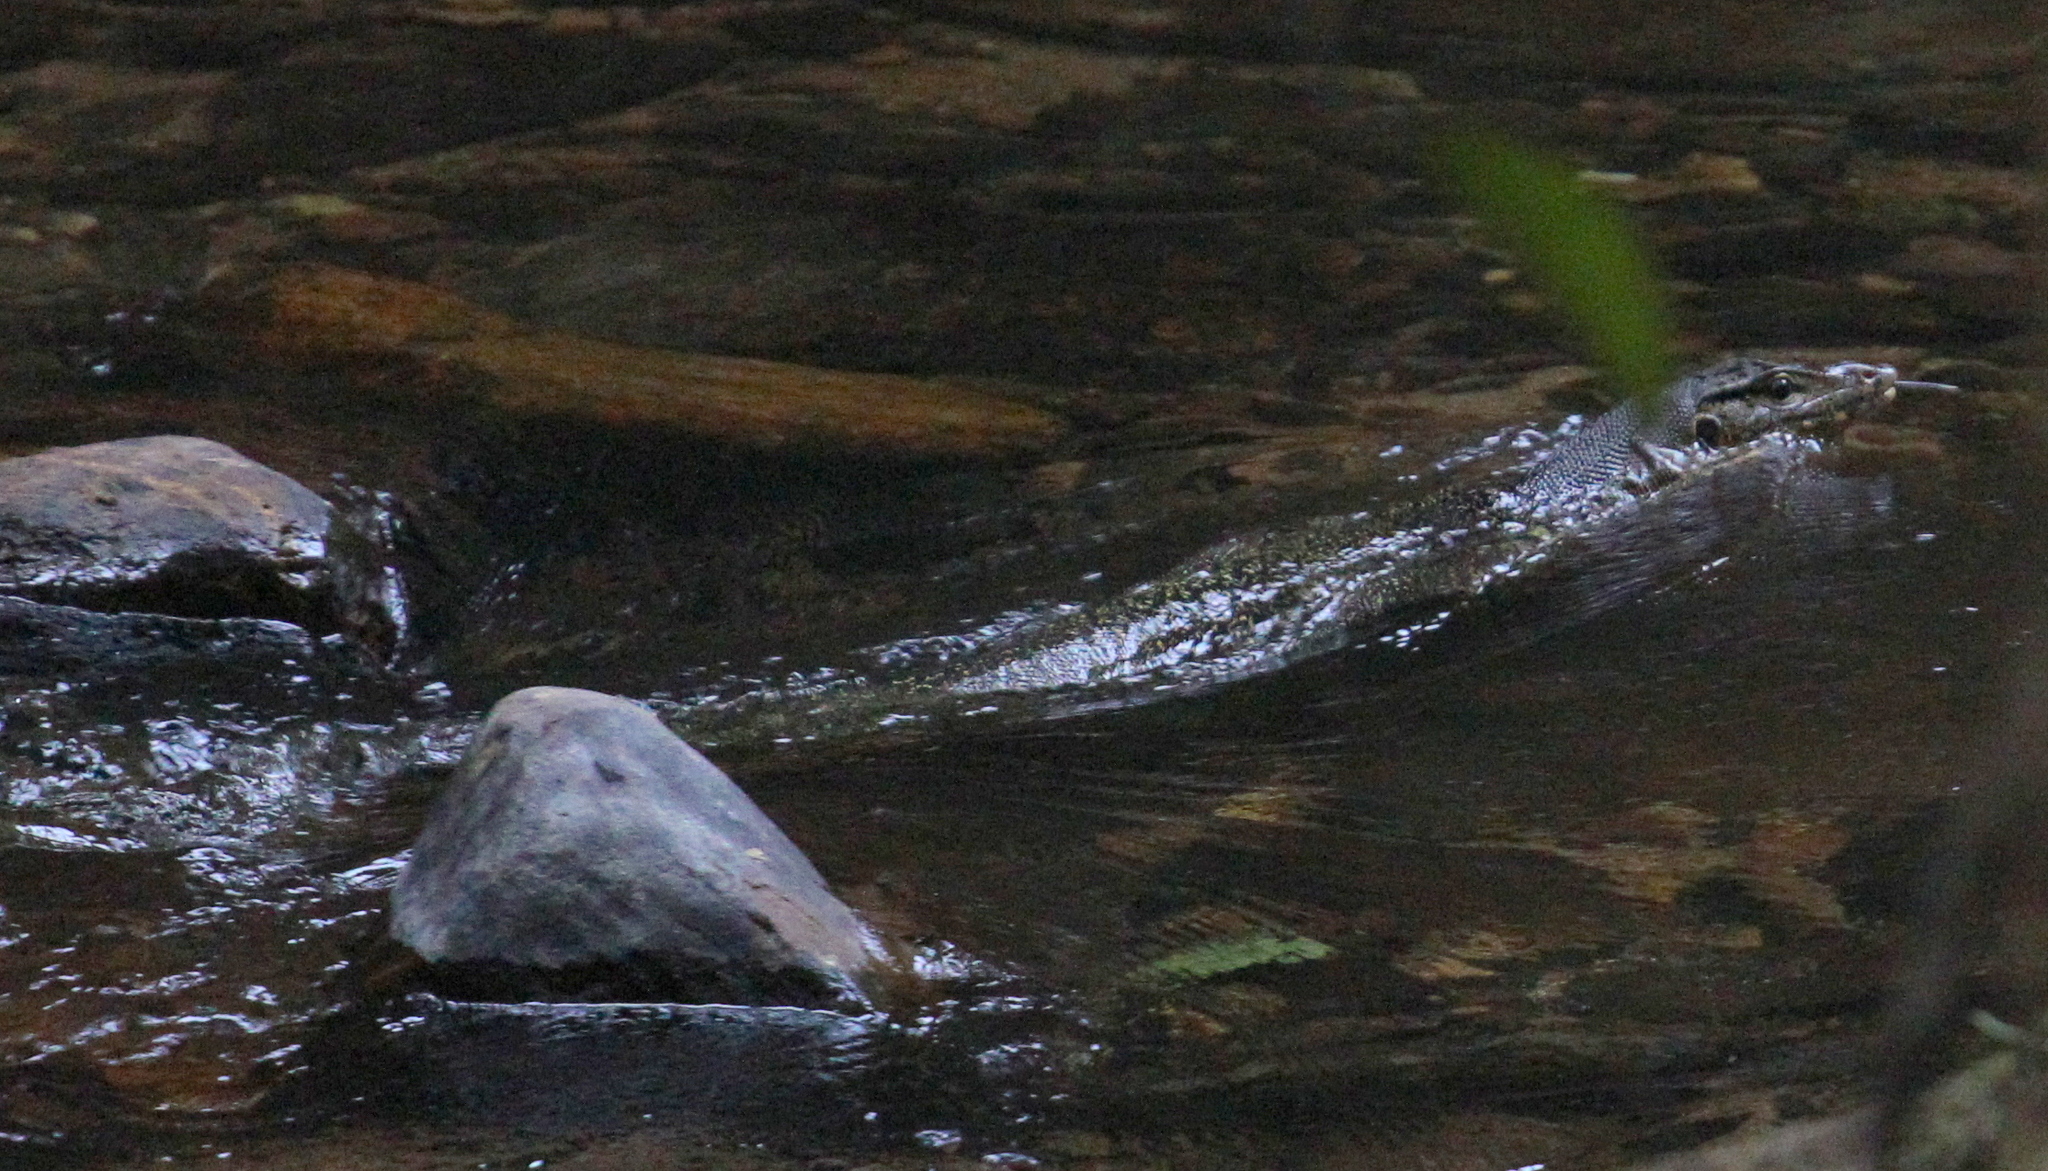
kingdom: Animalia
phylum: Chordata
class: Squamata
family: Varanidae
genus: Varanus
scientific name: Varanus salvator
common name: Common water monitor
